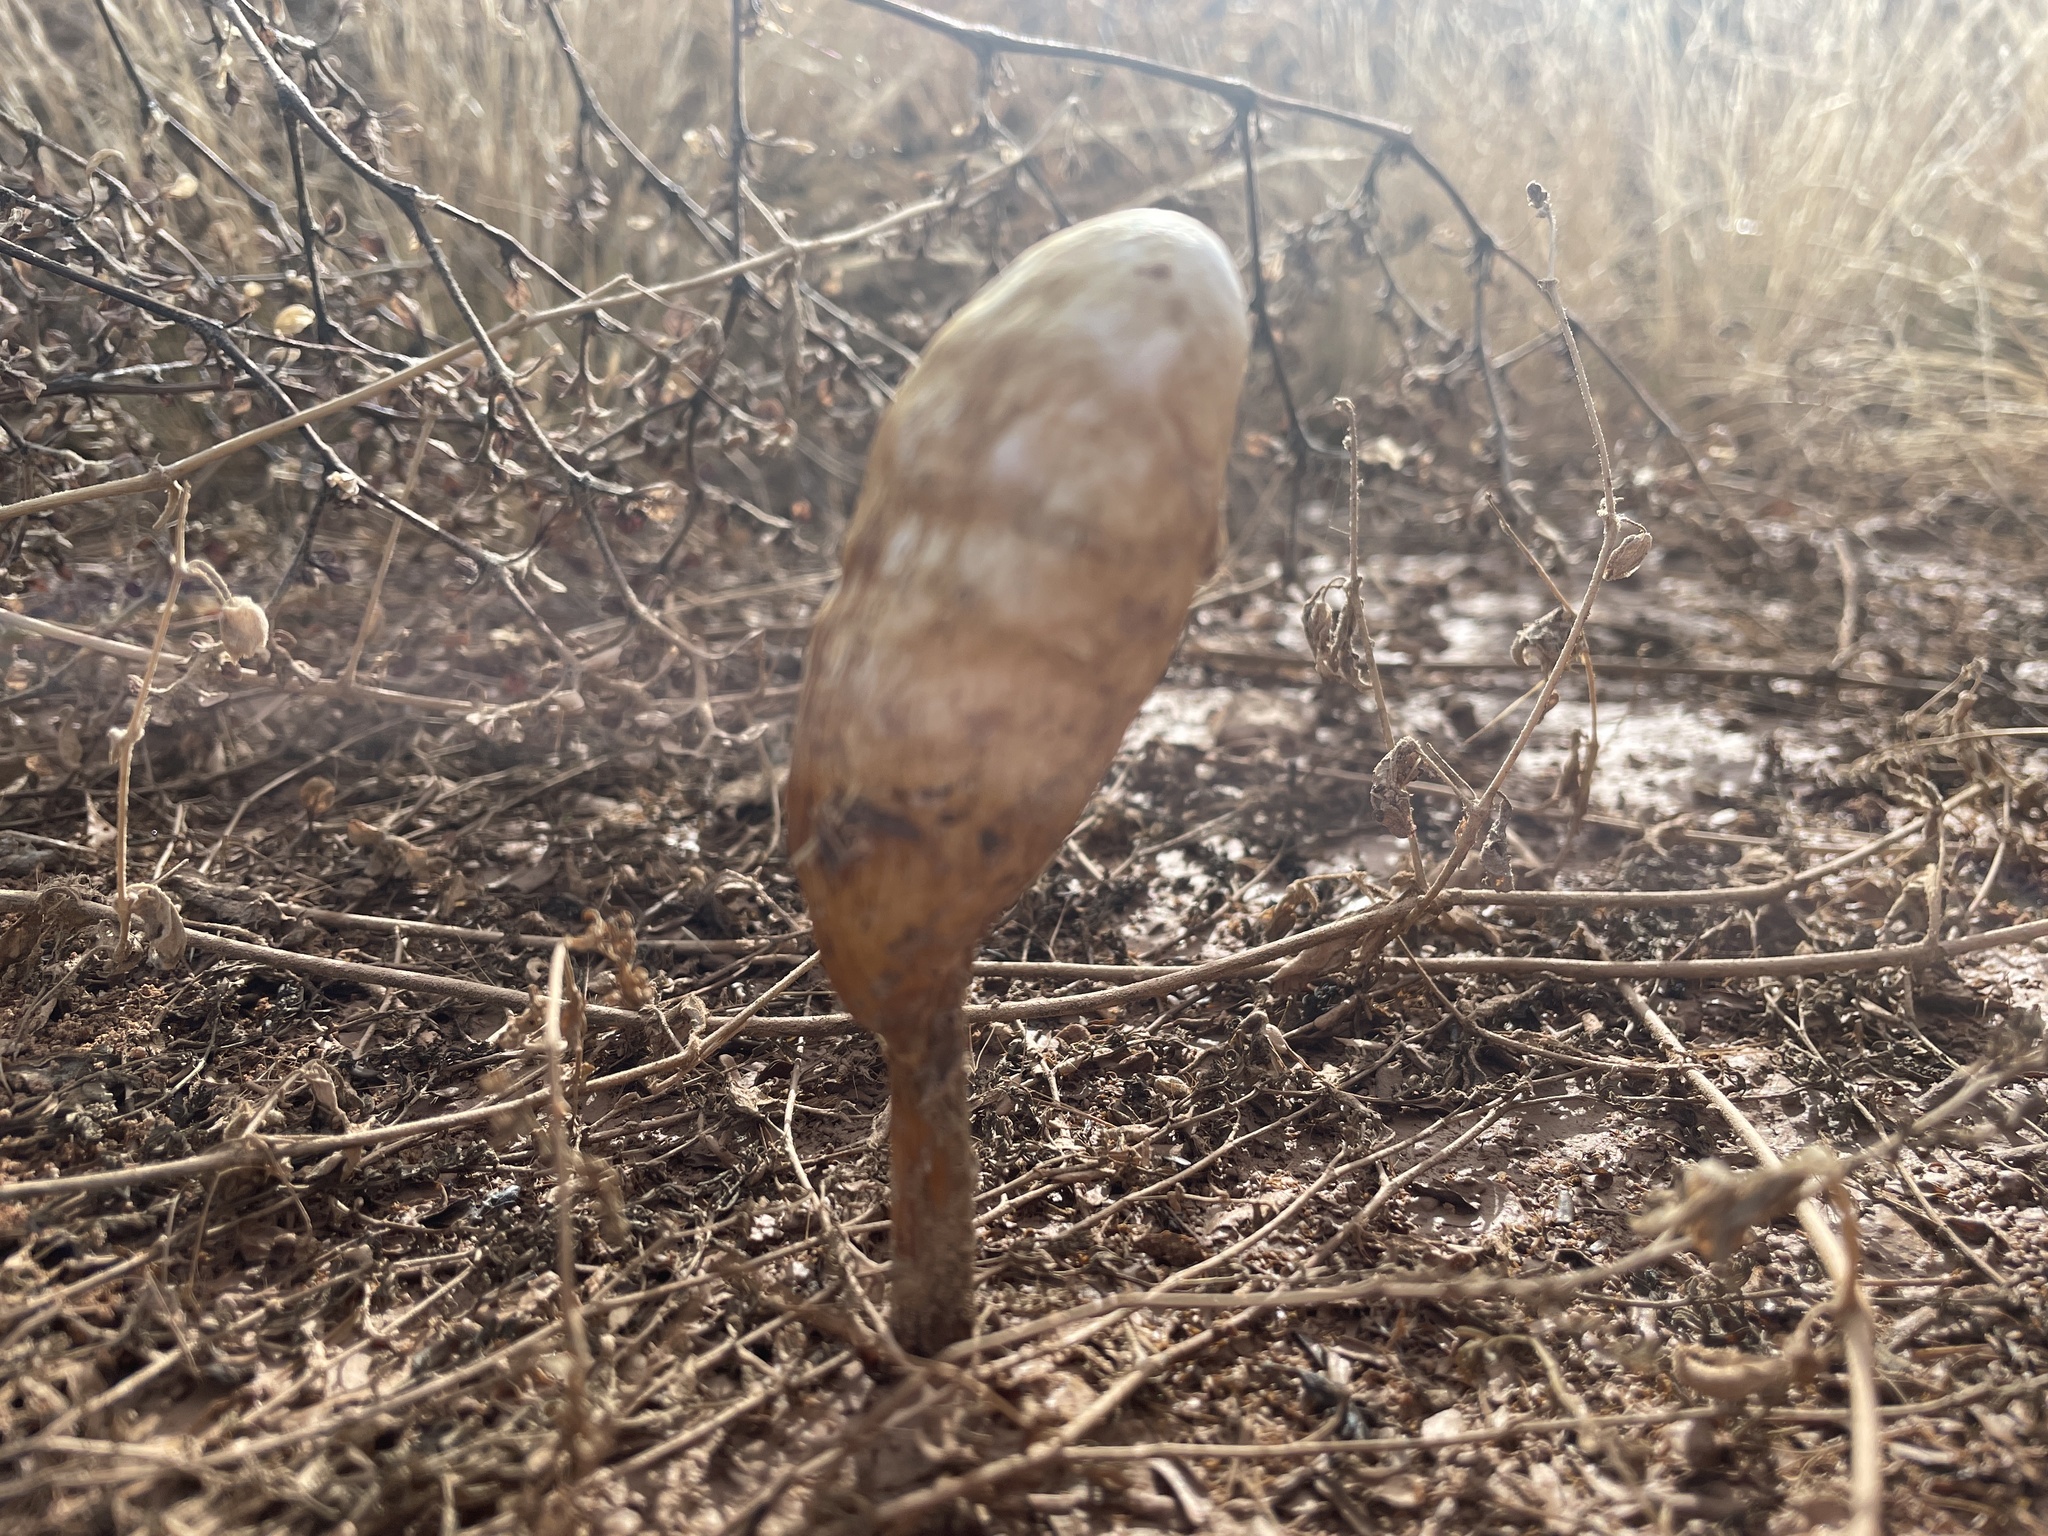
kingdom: Fungi
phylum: Basidiomycota
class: Agaricomycetes
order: Agaricales
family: Agaricaceae
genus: Podaxis
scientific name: Podaxis pistillaris
